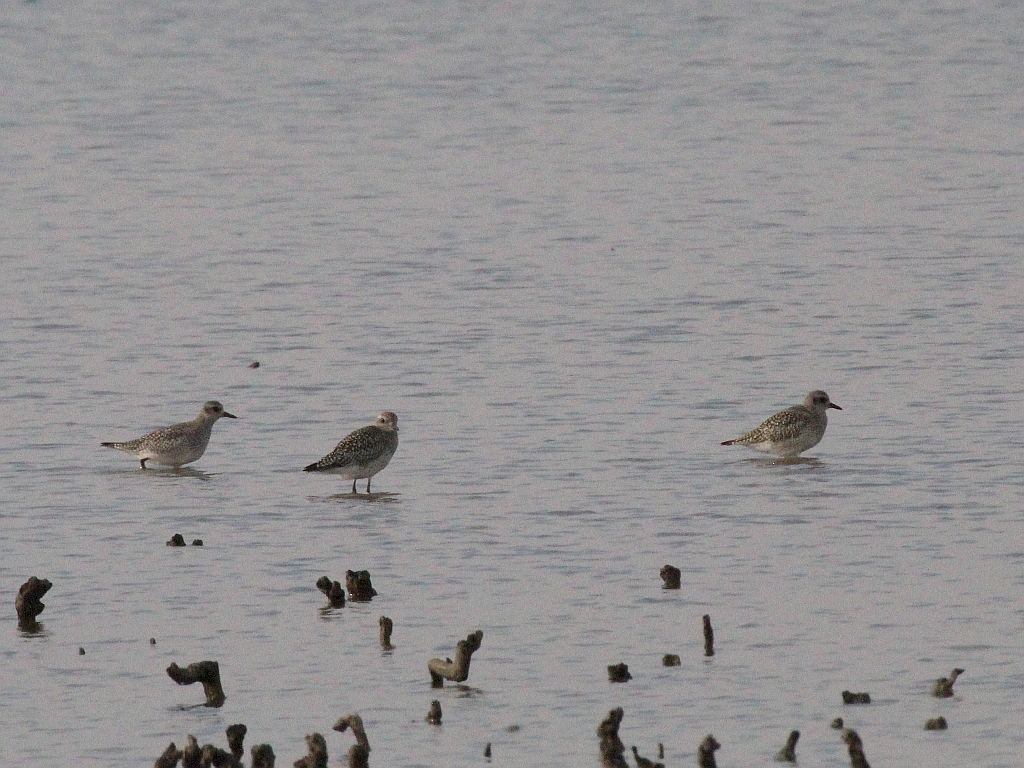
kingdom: Animalia
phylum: Chordata
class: Aves
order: Charadriiformes
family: Charadriidae
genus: Pluvialis
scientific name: Pluvialis squatarola
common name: Grey plover
